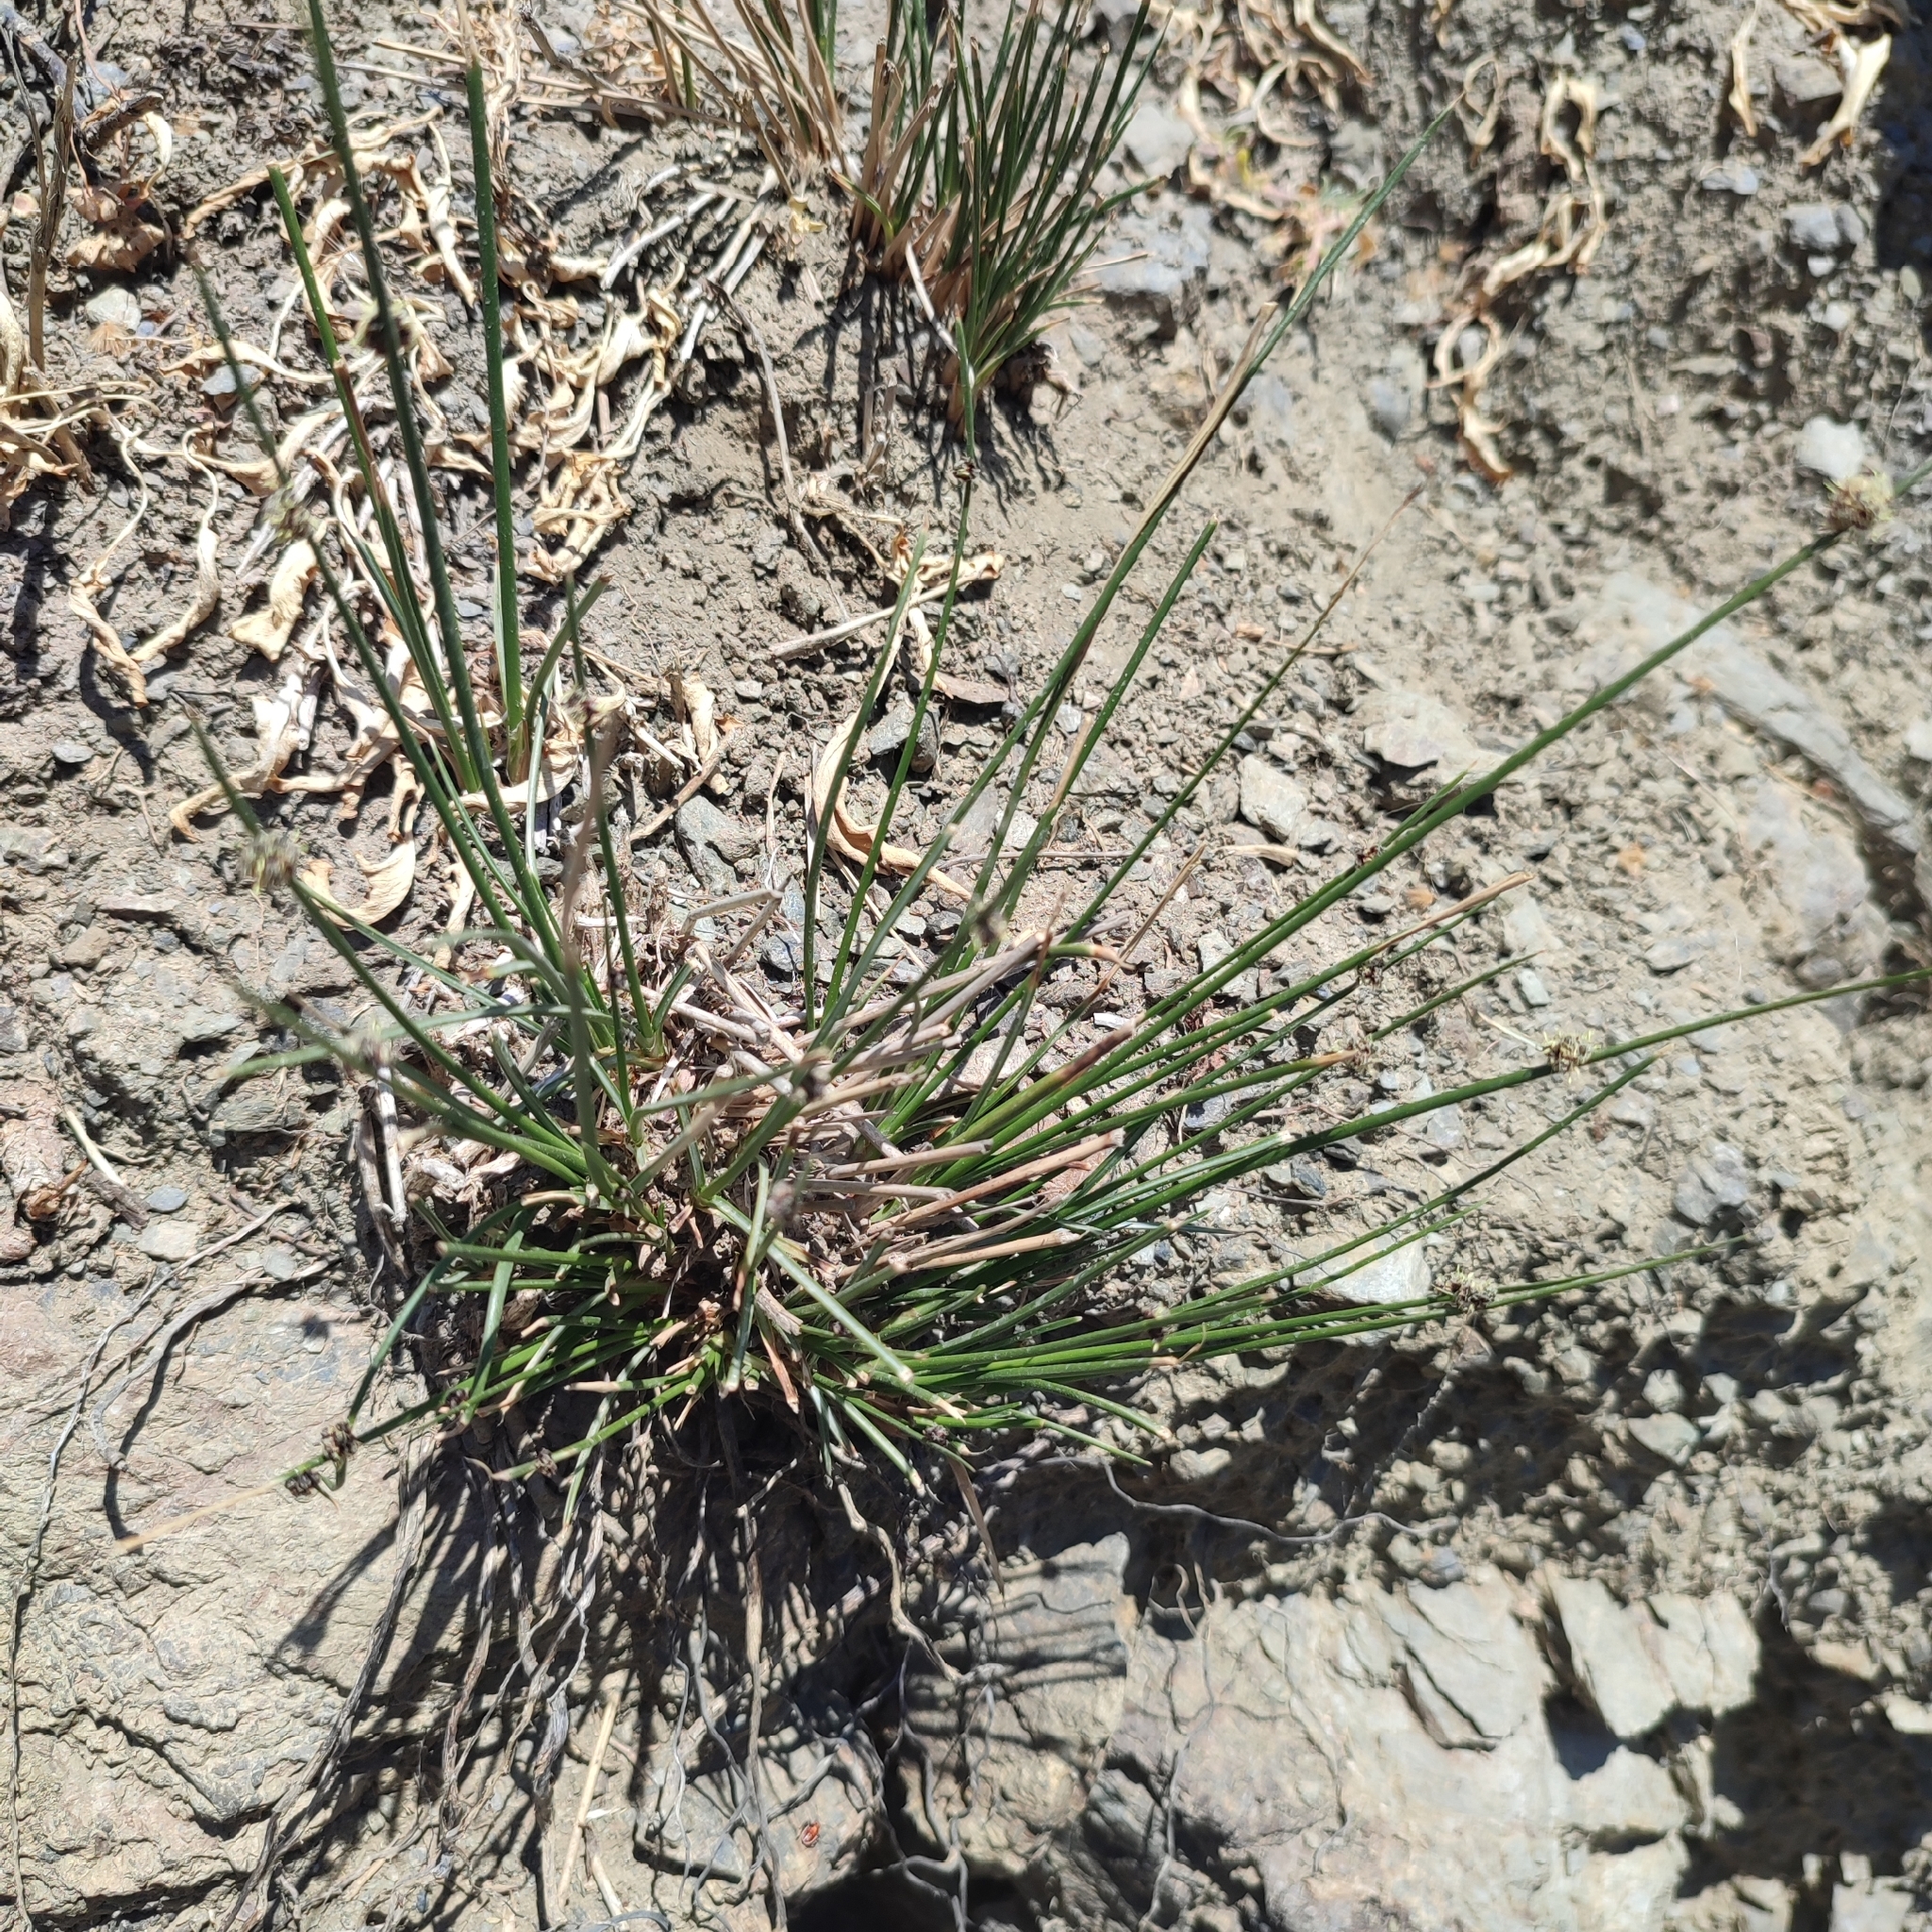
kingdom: Plantae
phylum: Tracheophyta
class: Liliopsida
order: Poales
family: Cyperaceae
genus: Scirpoides
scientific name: Scirpoides holoschoenus
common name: Round-headed club-rush
